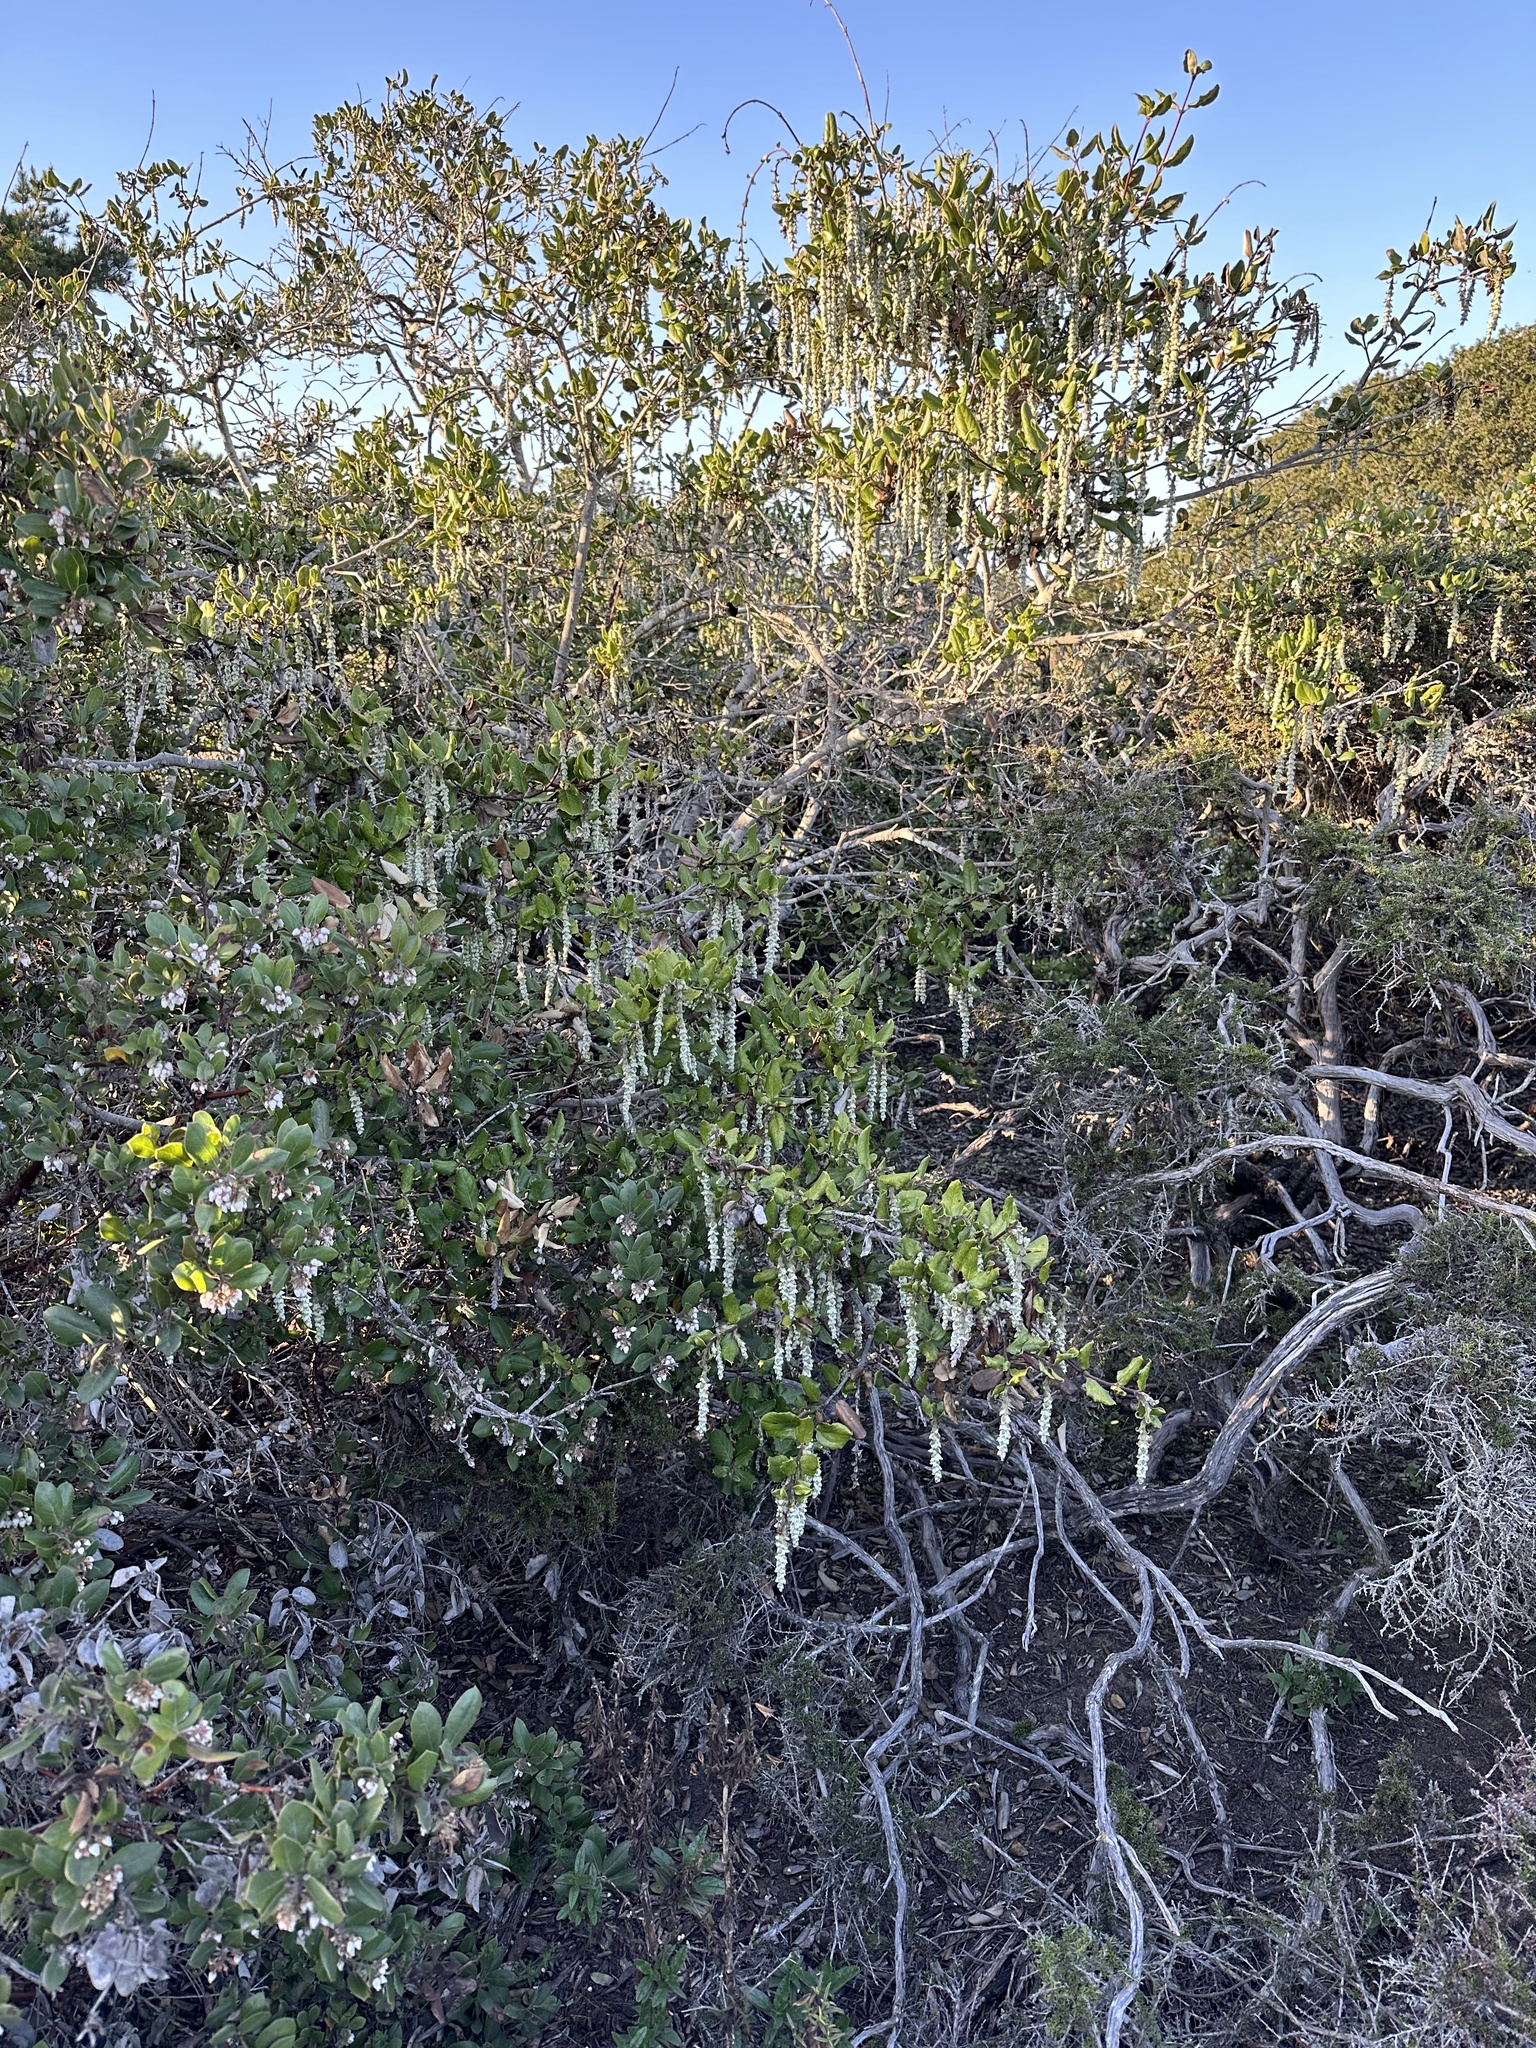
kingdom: Plantae
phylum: Tracheophyta
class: Magnoliopsida
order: Garryales
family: Garryaceae
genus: Garrya
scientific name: Garrya elliptica
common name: Silk-tassel
